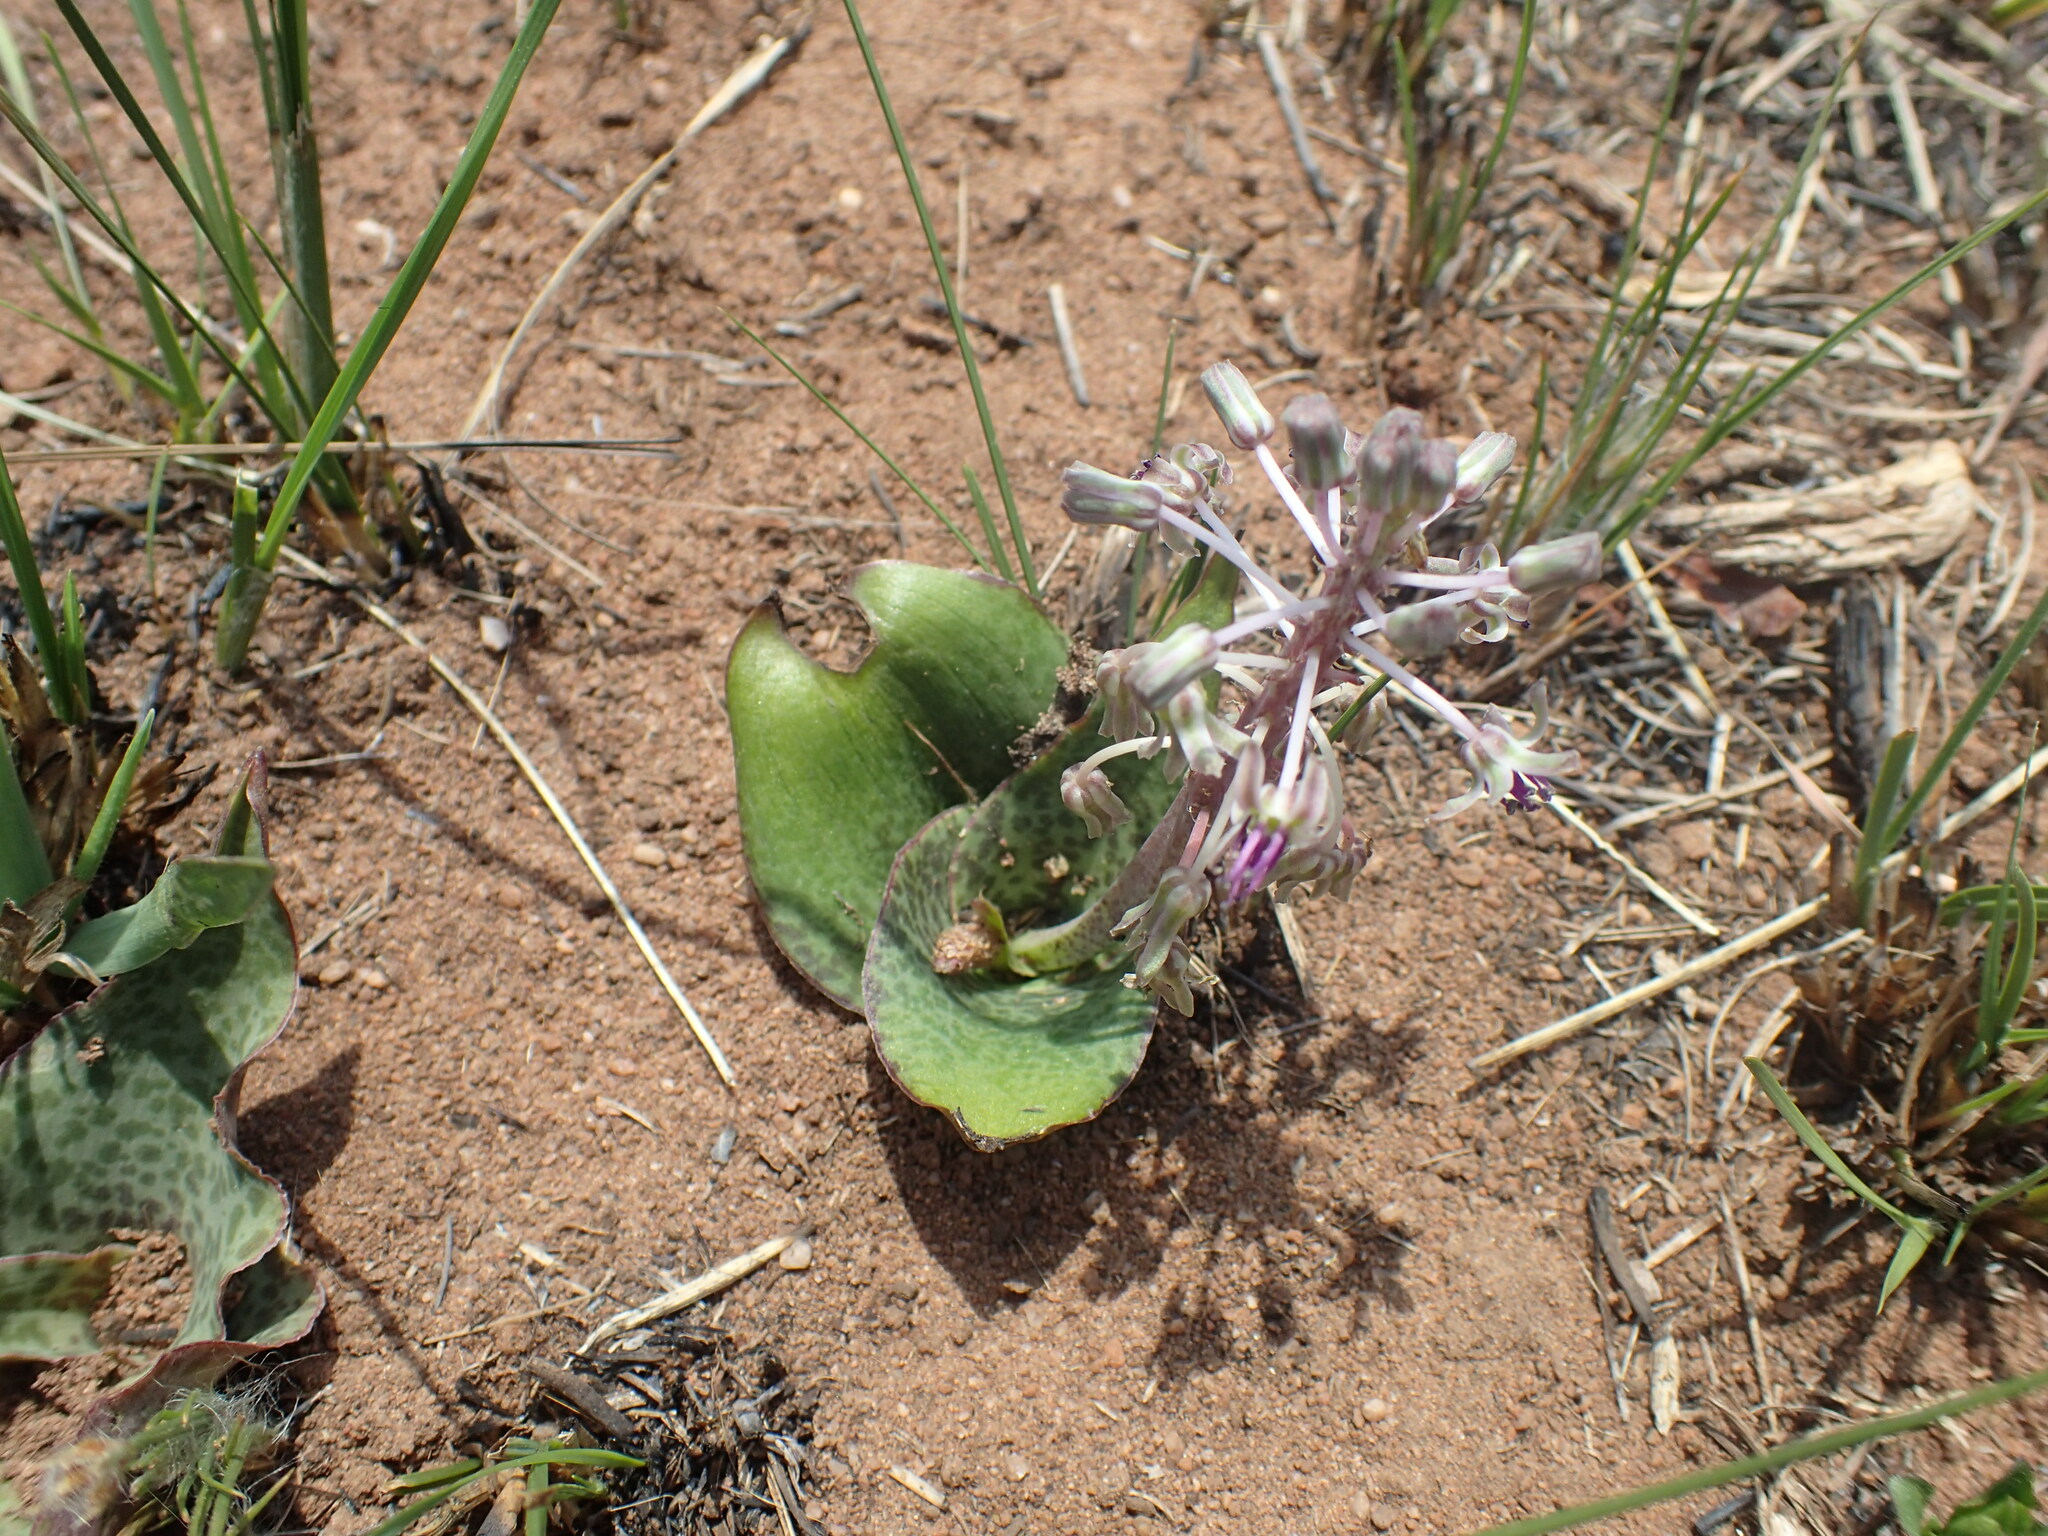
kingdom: Plantae
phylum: Tracheophyta
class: Liliopsida
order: Asparagales
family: Asparagaceae
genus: Ledebouria
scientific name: Ledebouria ovatifolia
